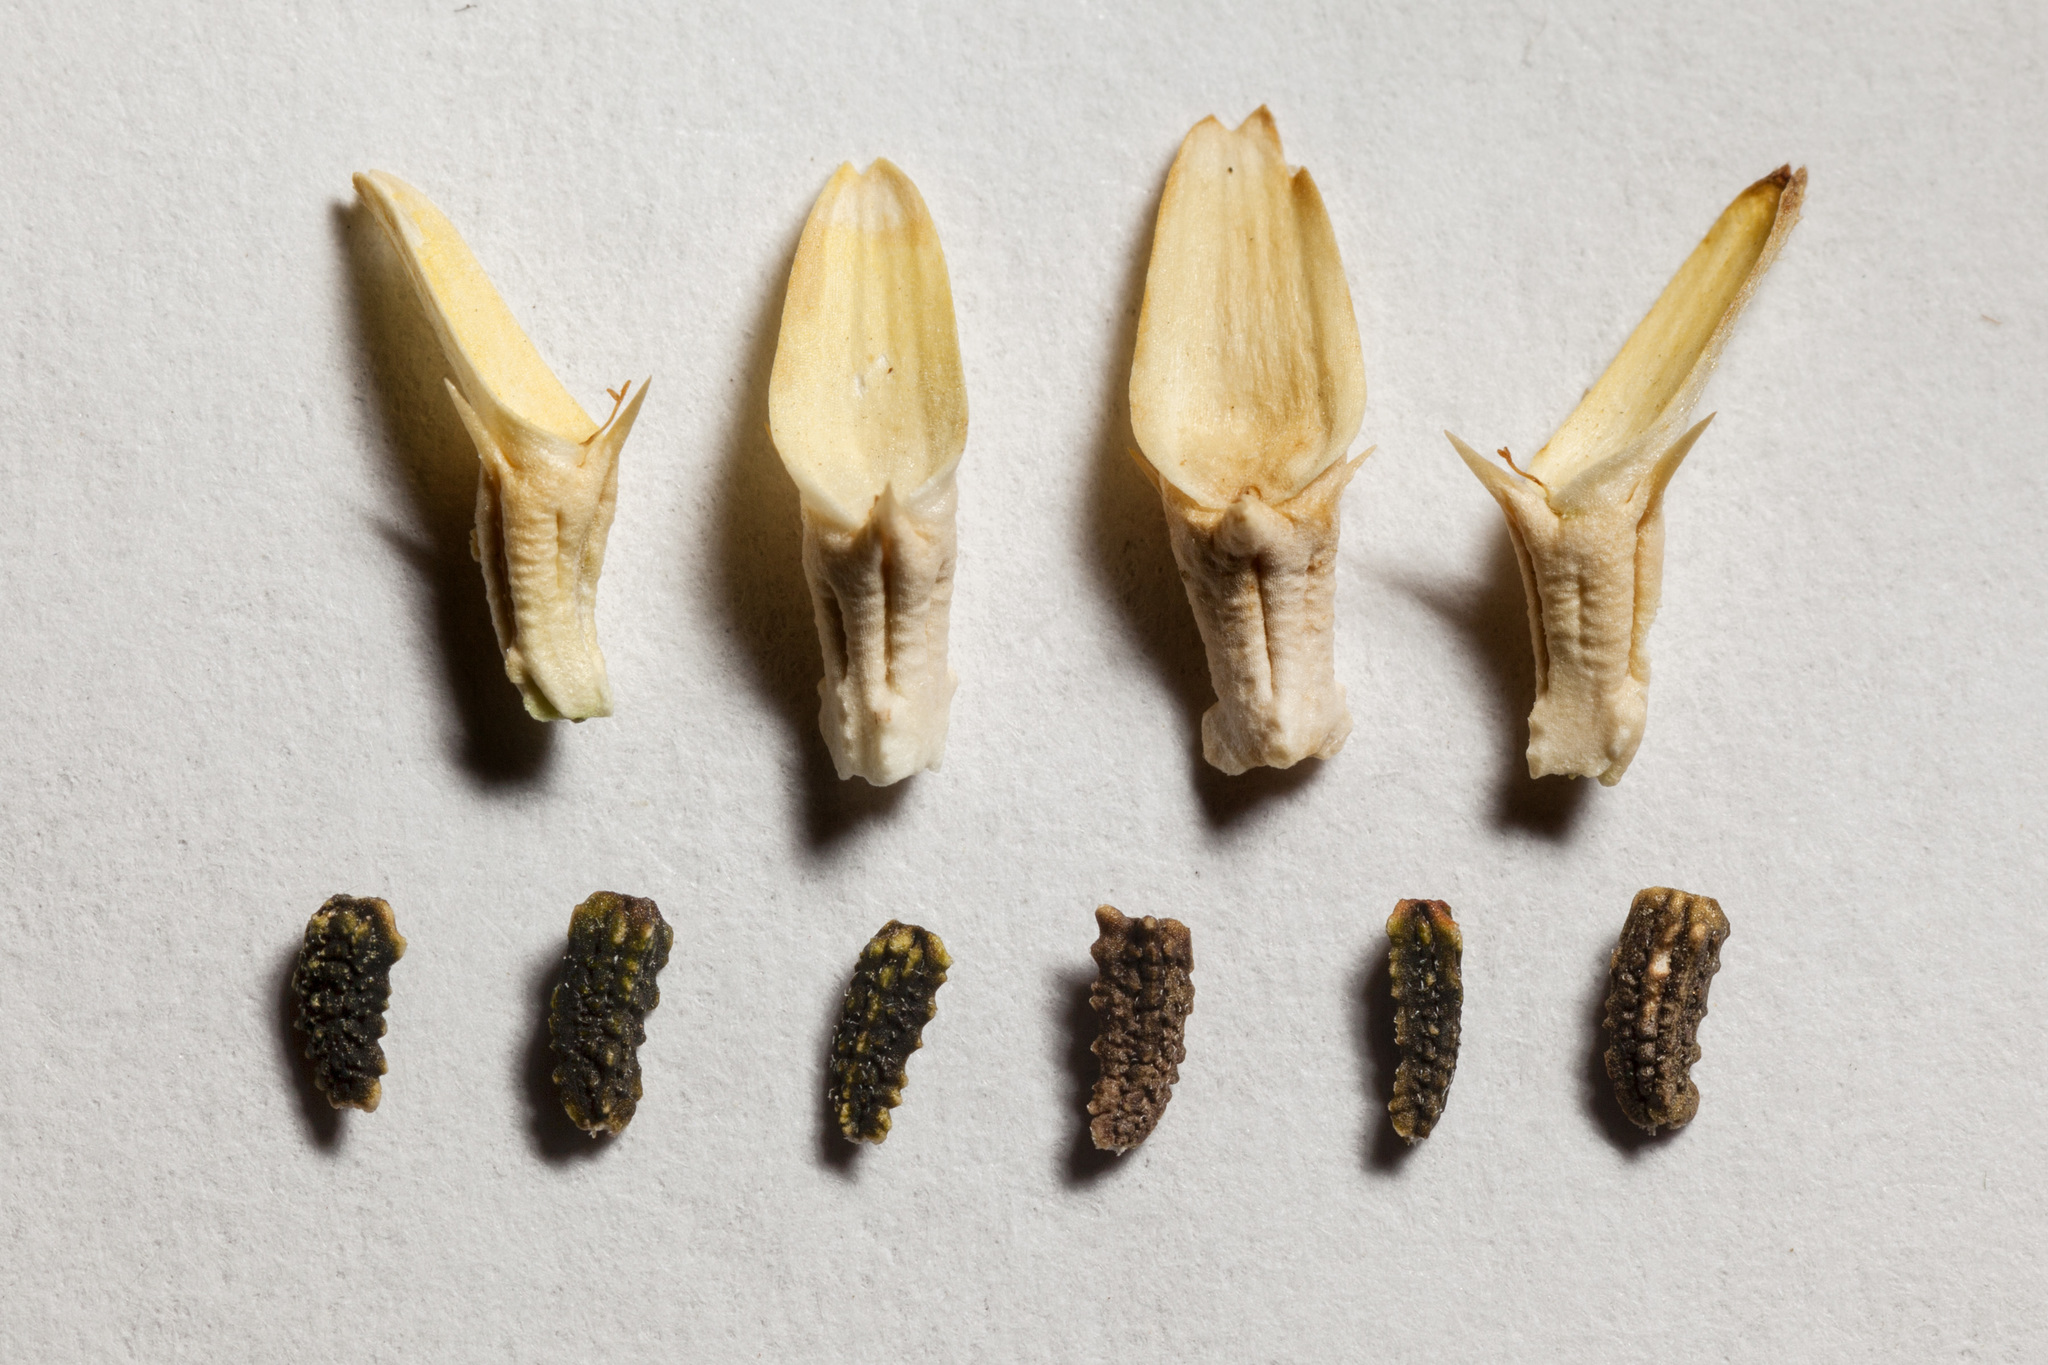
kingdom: Plantae
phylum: Tracheophyta
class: Magnoliopsida
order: Asterales
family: Asteraceae
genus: Sanvitalia
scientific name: Sanvitalia abertii
